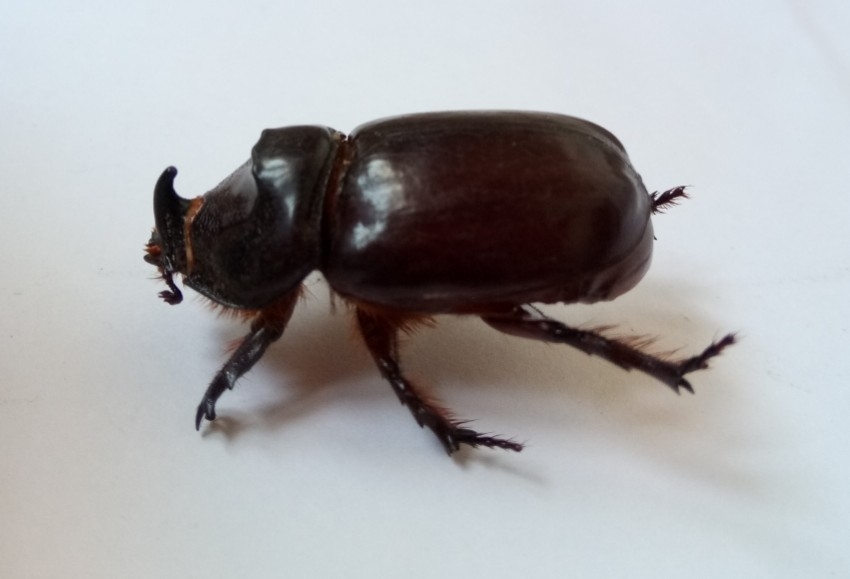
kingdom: Animalia
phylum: Arthropoda
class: Insecta
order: Coleoptera
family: Scarabaeidae
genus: Oryctes
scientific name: Oryctes nasicornis
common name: European rhinoceros beetle
